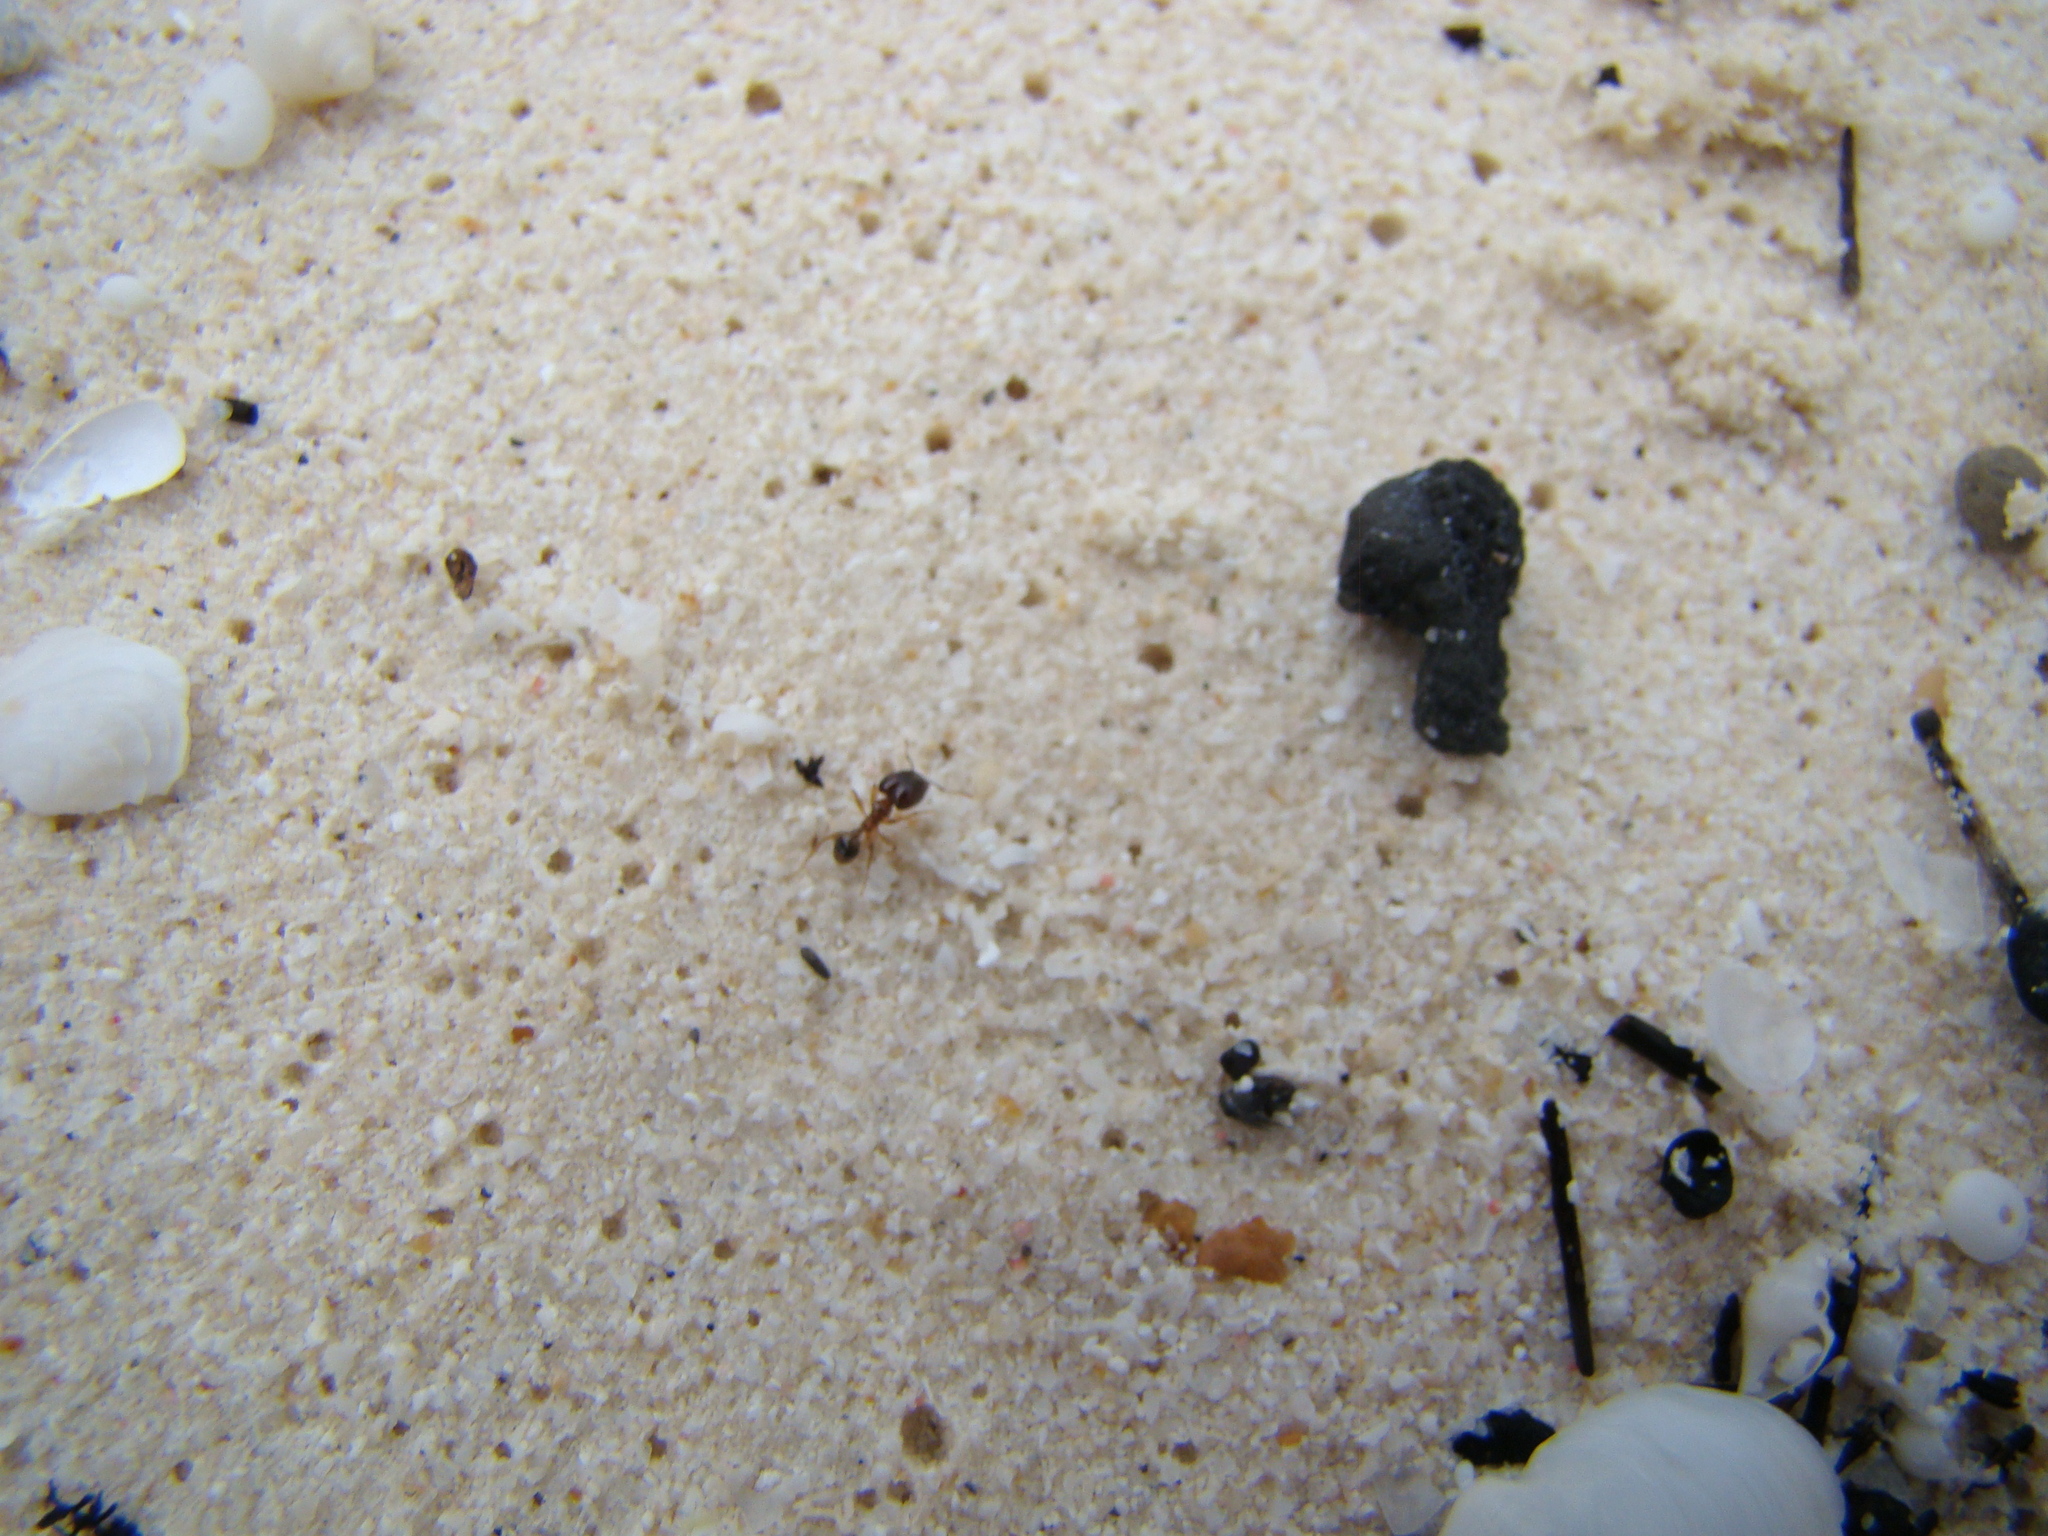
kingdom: Animalia
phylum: Arthropoda
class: Insecta
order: Hymenoptera
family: Formicidae
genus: Pheidole
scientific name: Pheidole megacephala
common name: Bigheaded ant
